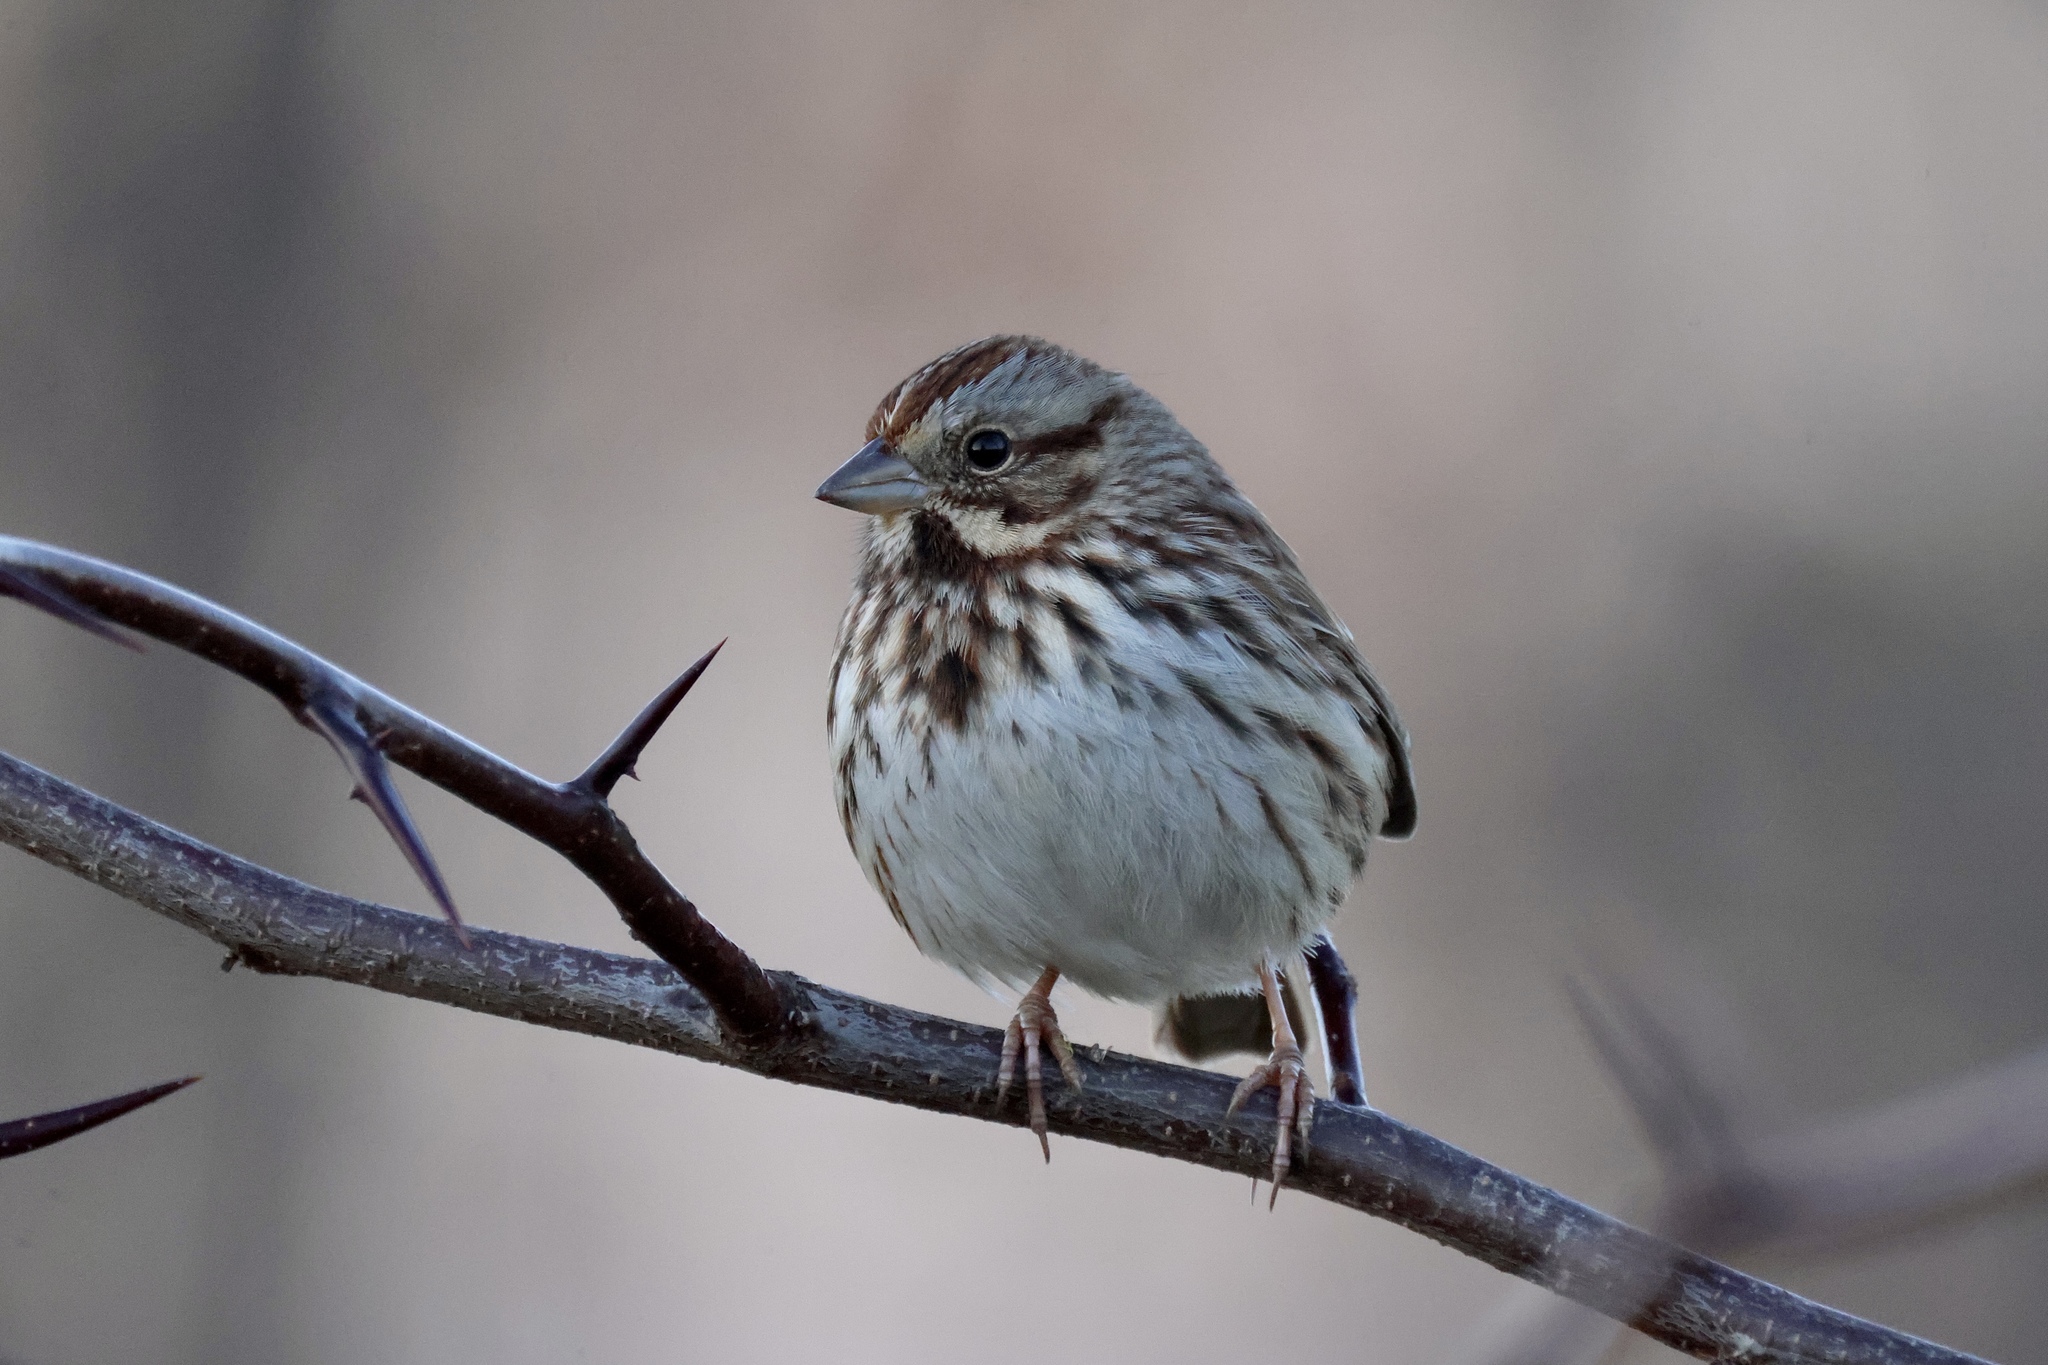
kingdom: Animalia
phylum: Chordata
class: Aves
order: Passeriformes
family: Passerellidae
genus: Melospiza
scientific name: Melospiza melodia
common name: Song sparrow
